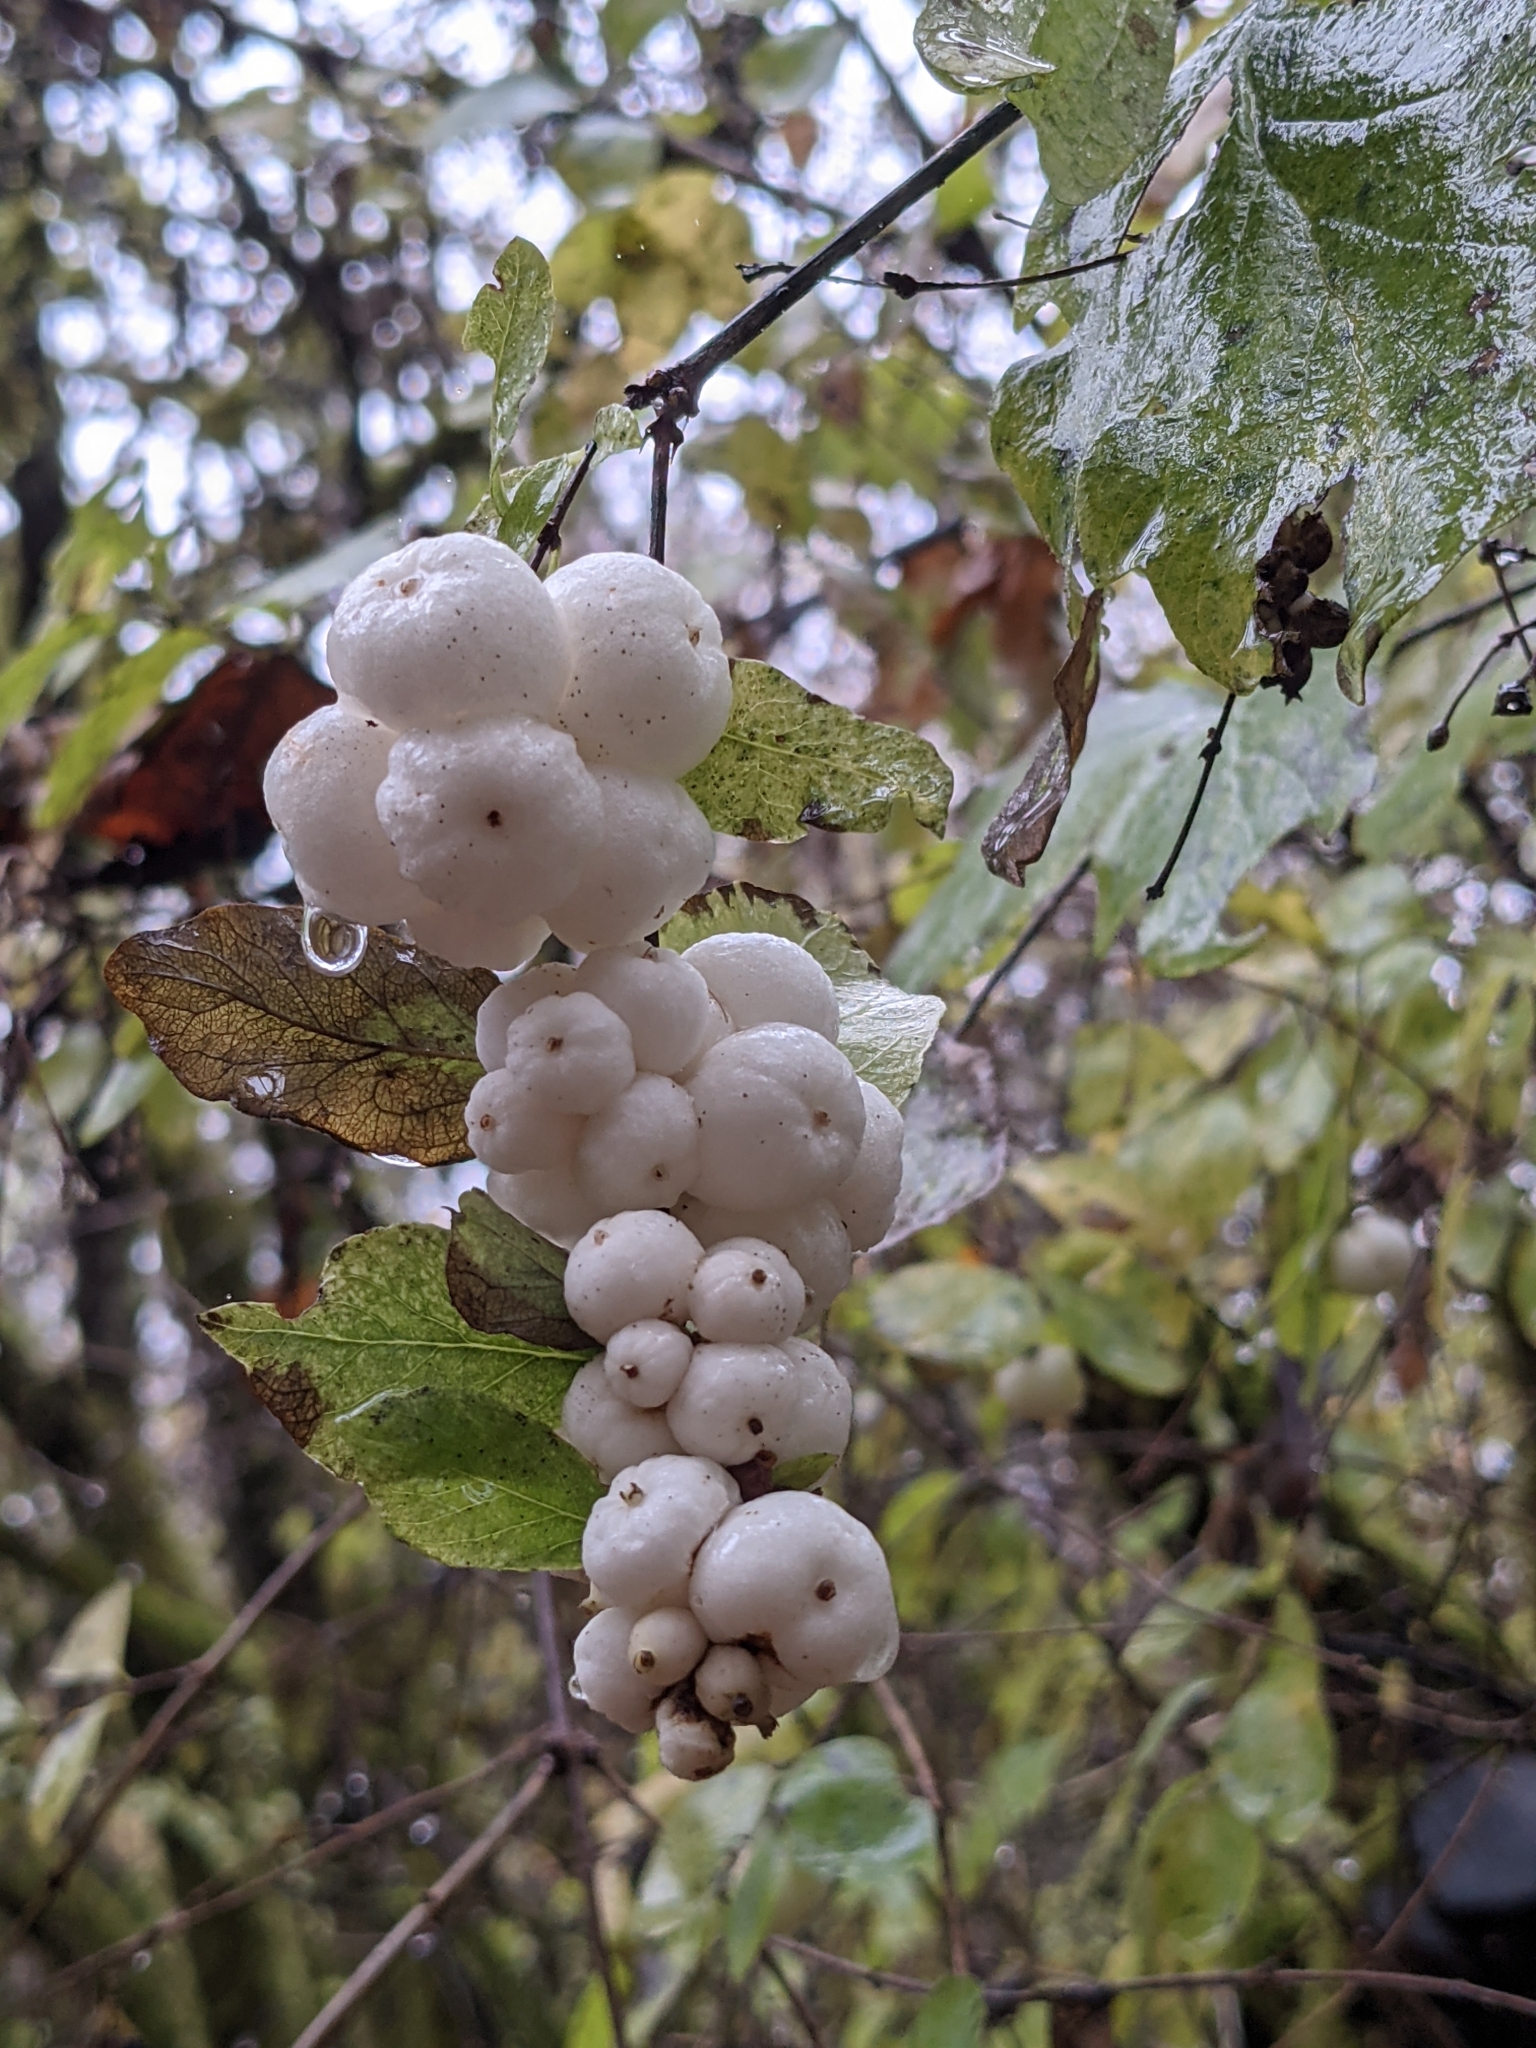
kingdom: Plantae
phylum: Tracheophyta
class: Magnoliopsida
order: Dipsacales
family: Caprifoliaceae
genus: Symphoricarpos
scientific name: Symphoricarpos albus
